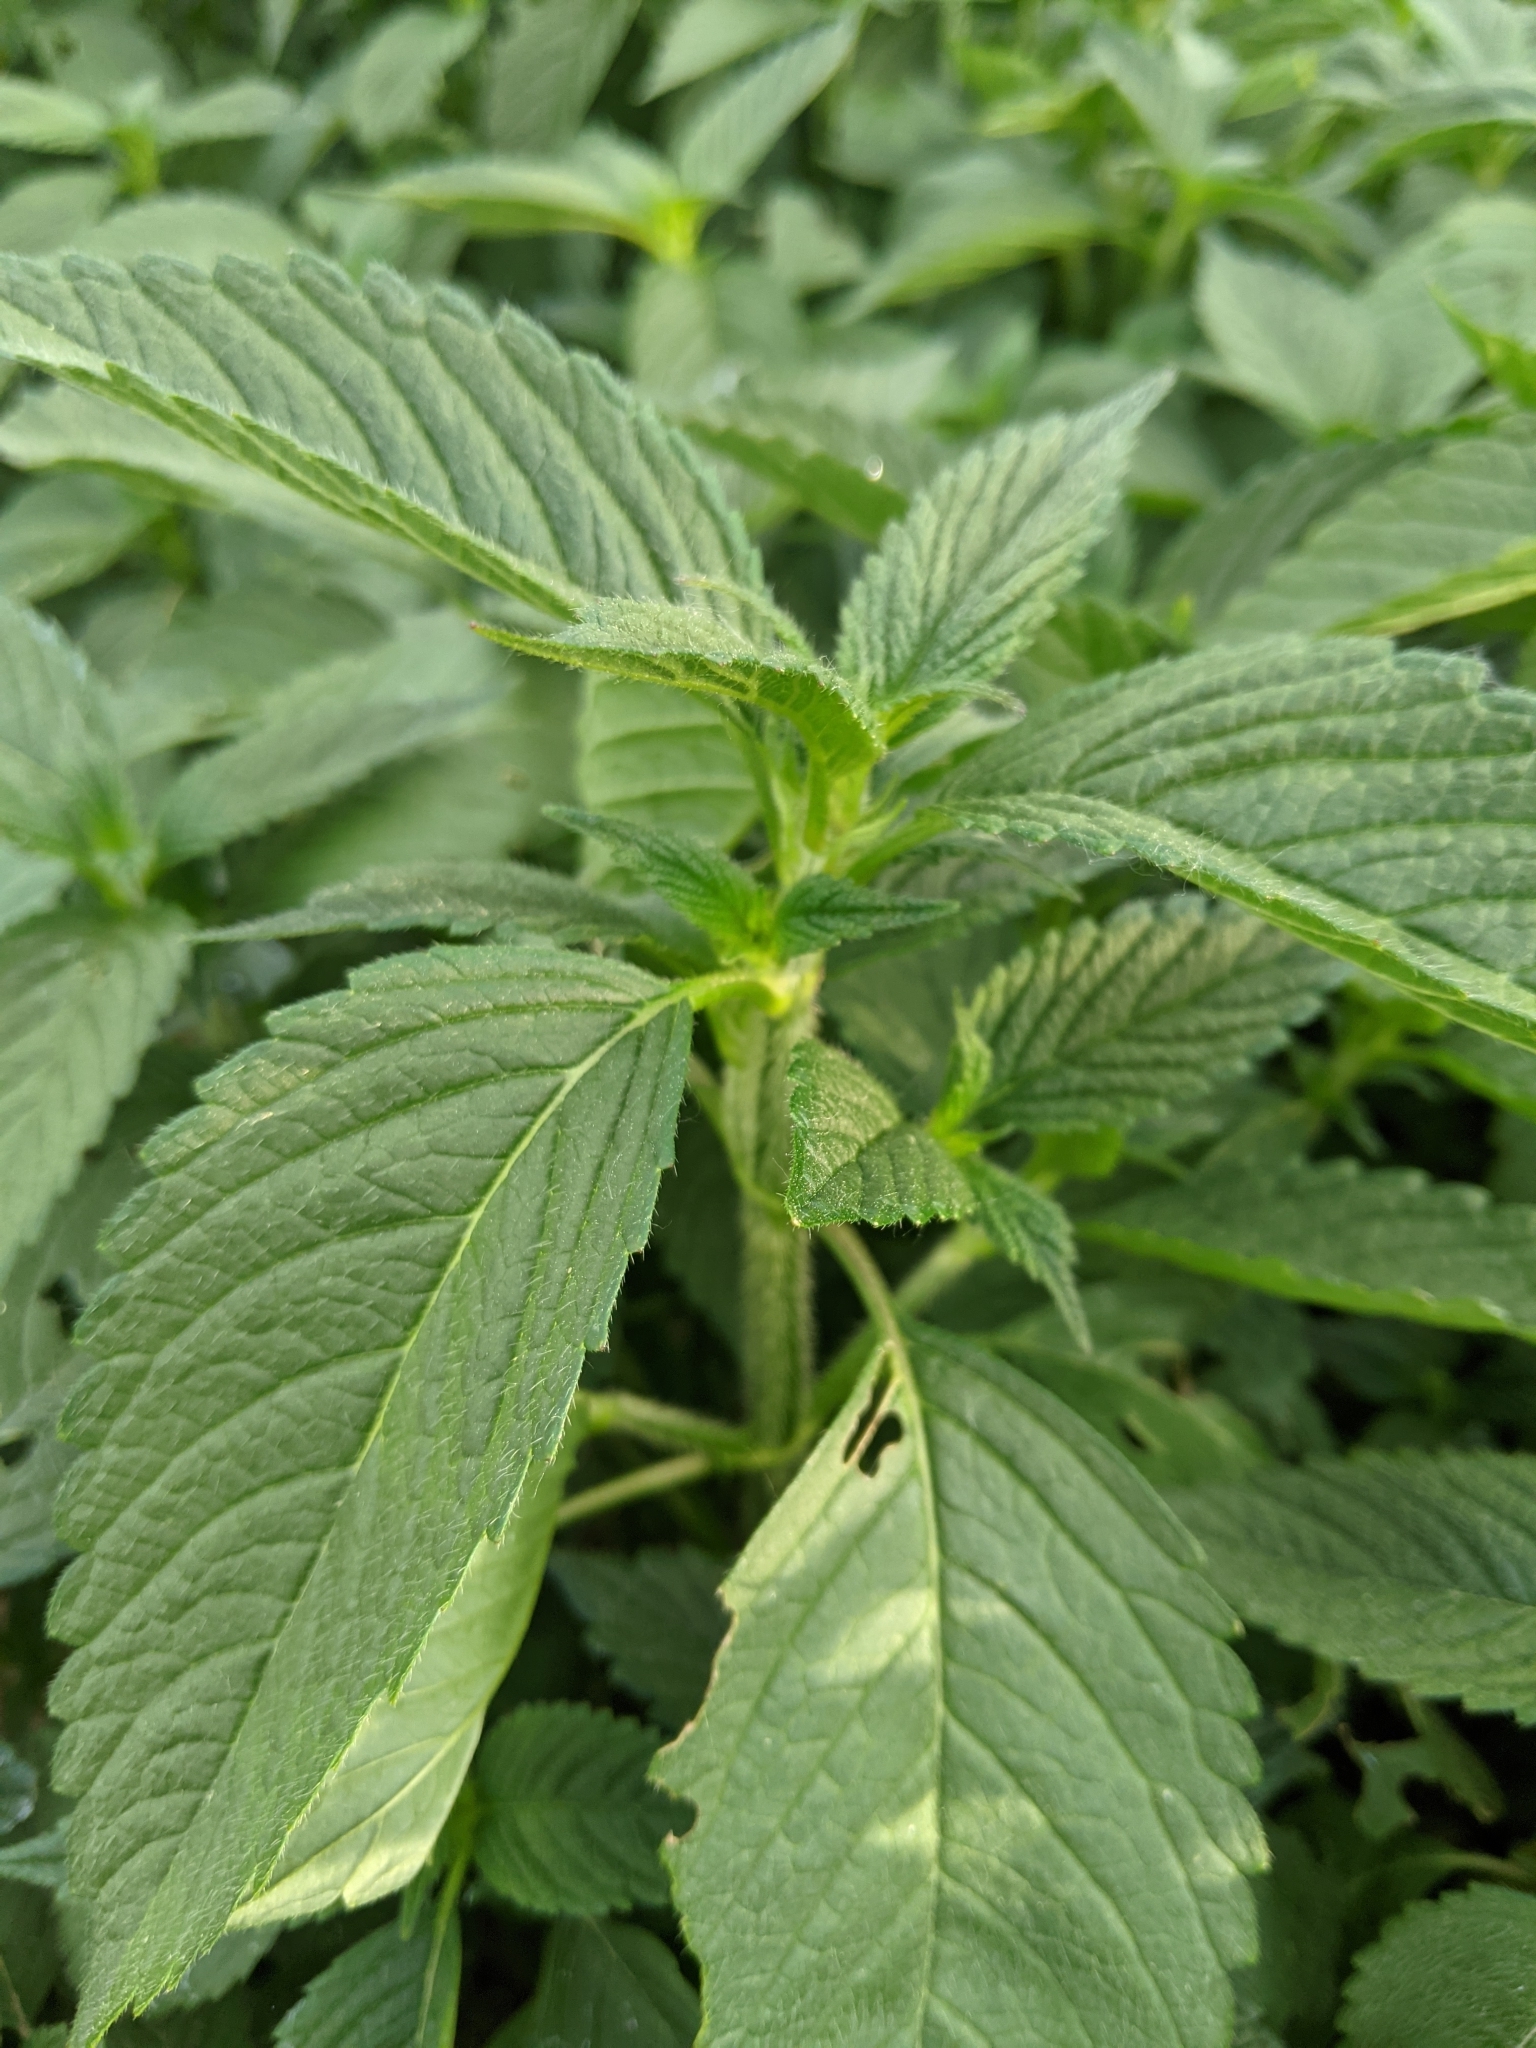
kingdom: Plantae
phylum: Tracheophyta
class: Magnoliopsida
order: Lamiales
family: Lamiaceae
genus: Galeopsis
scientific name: Galeopsis
